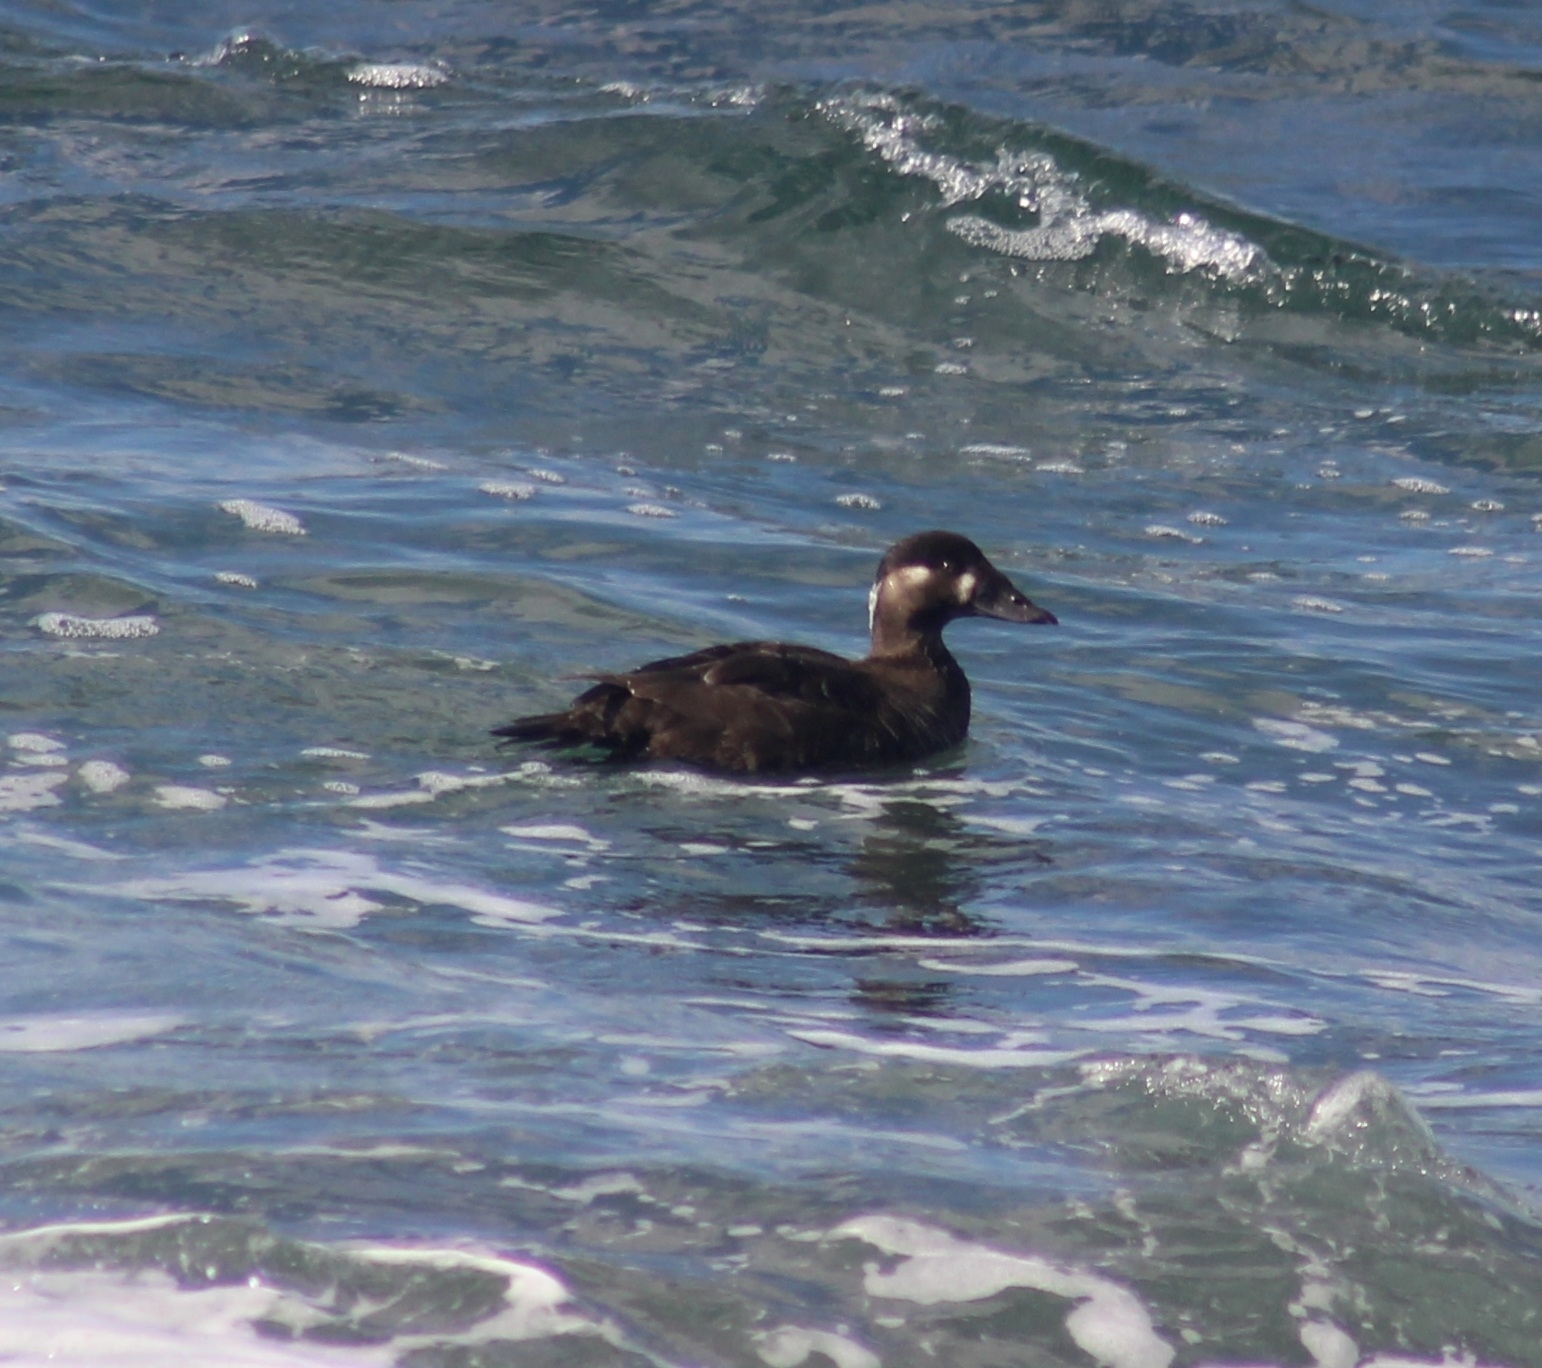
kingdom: Animalia
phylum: Chordata
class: Aves
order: Anseriformes
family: Anatidae
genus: Melanitta
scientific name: Melanitta perspicillata
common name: Surf scoter
